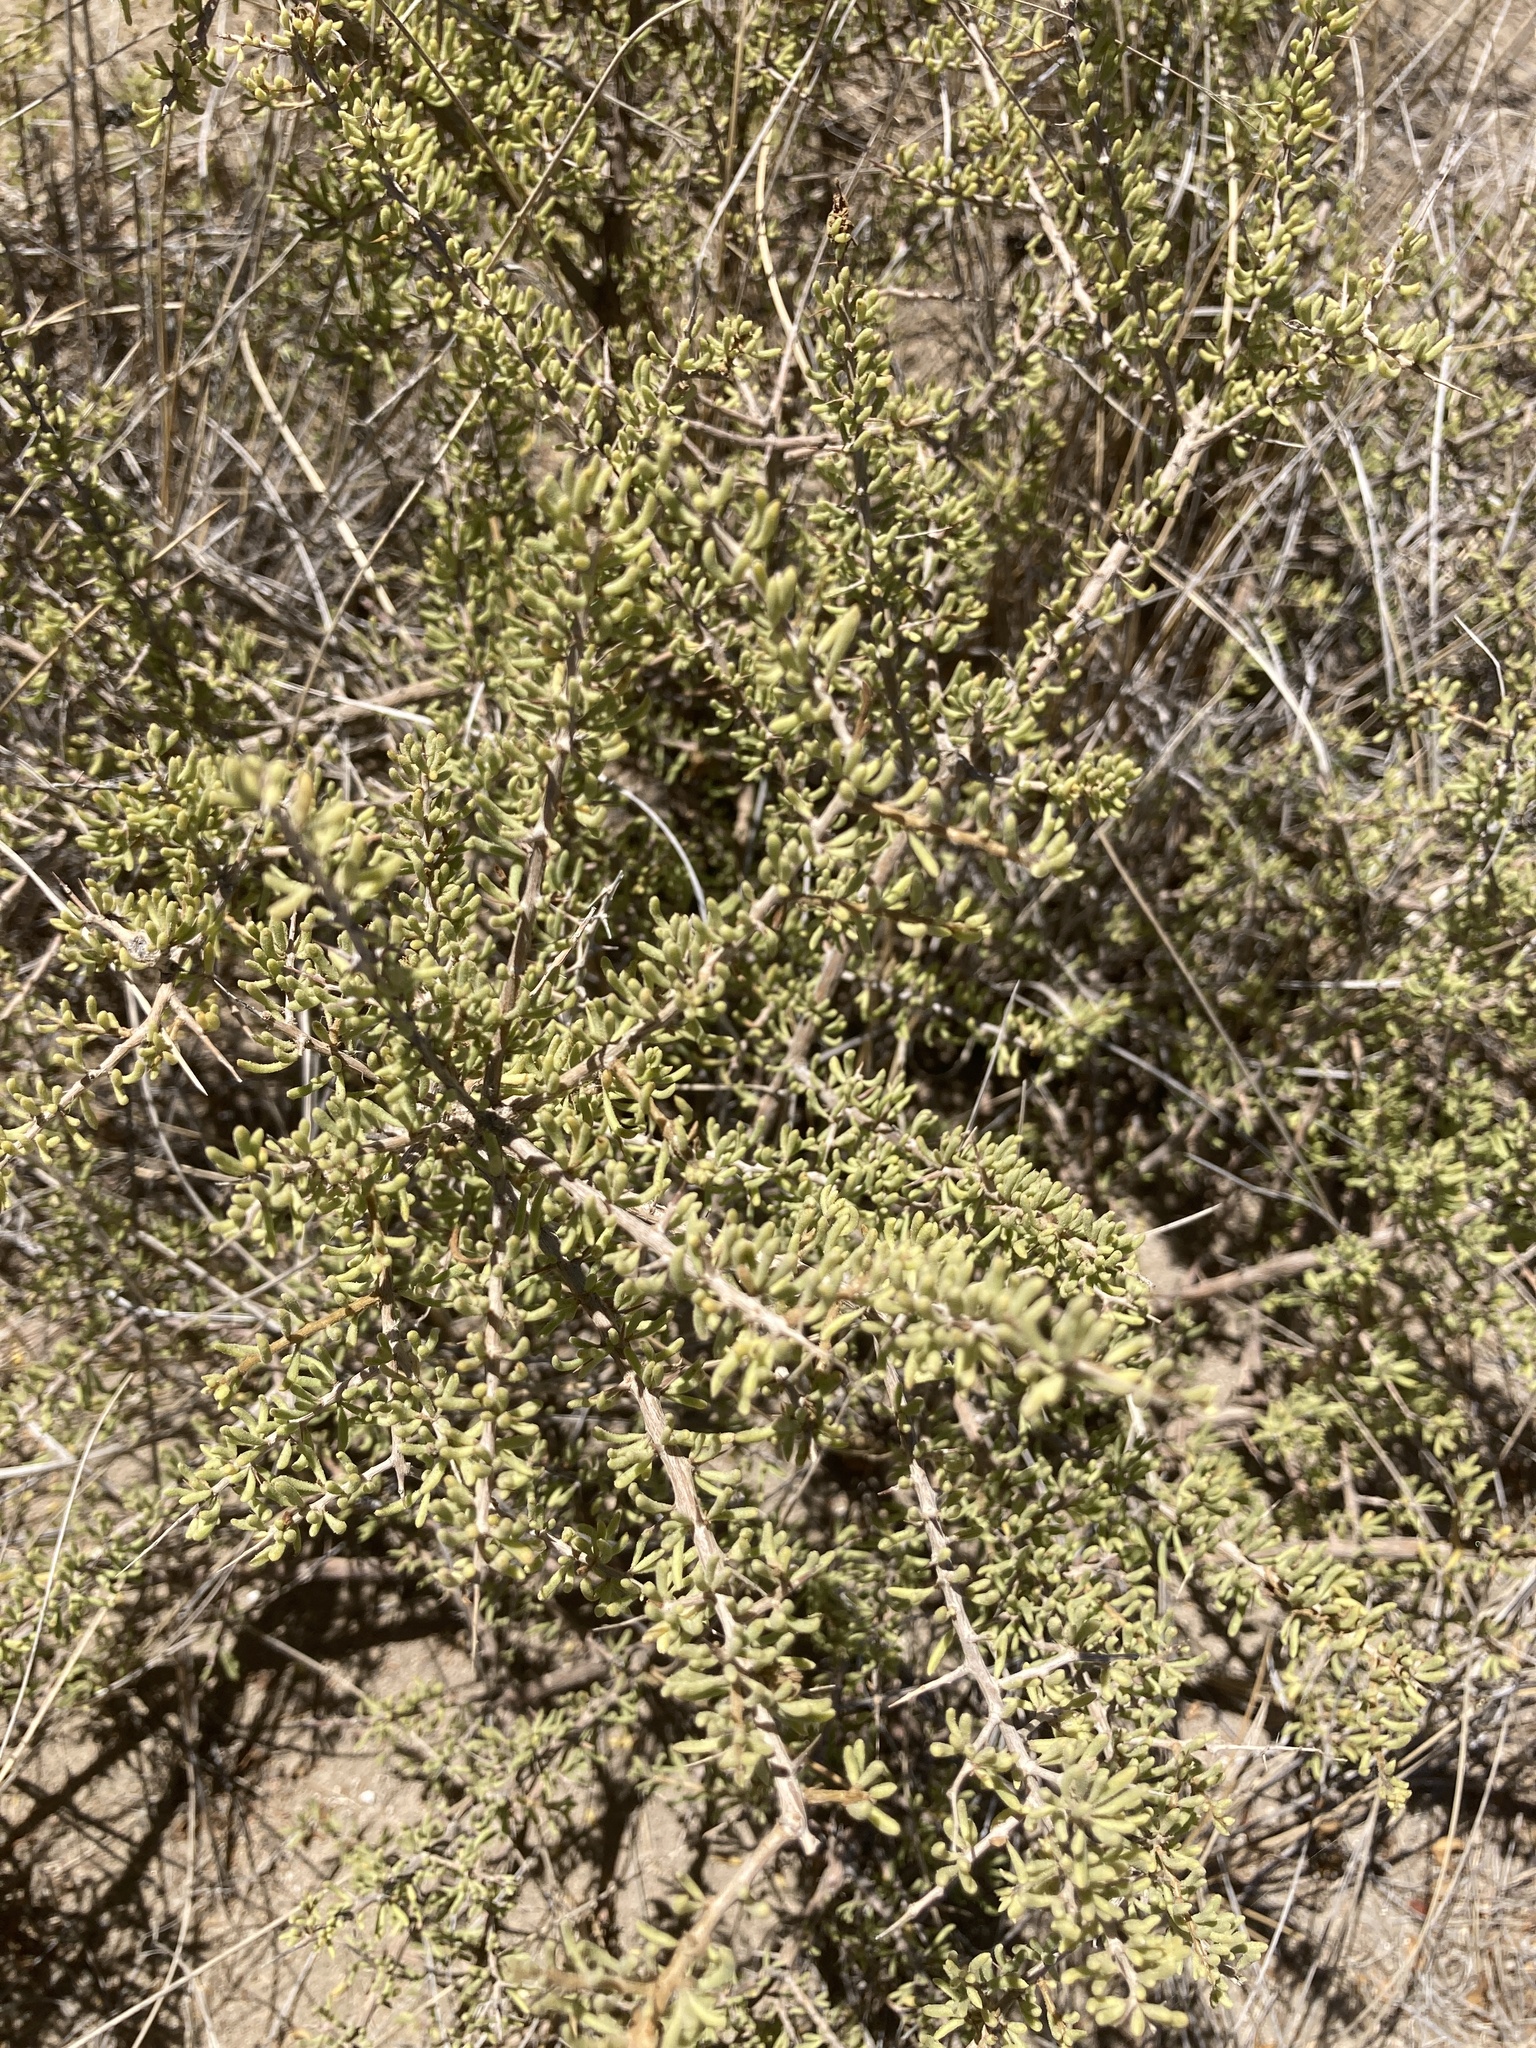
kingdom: Plantae
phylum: Tracheophyta
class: Magnoliopsida
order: Solanales
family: Solanaceae
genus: Lycium
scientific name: Lycium infaustum
